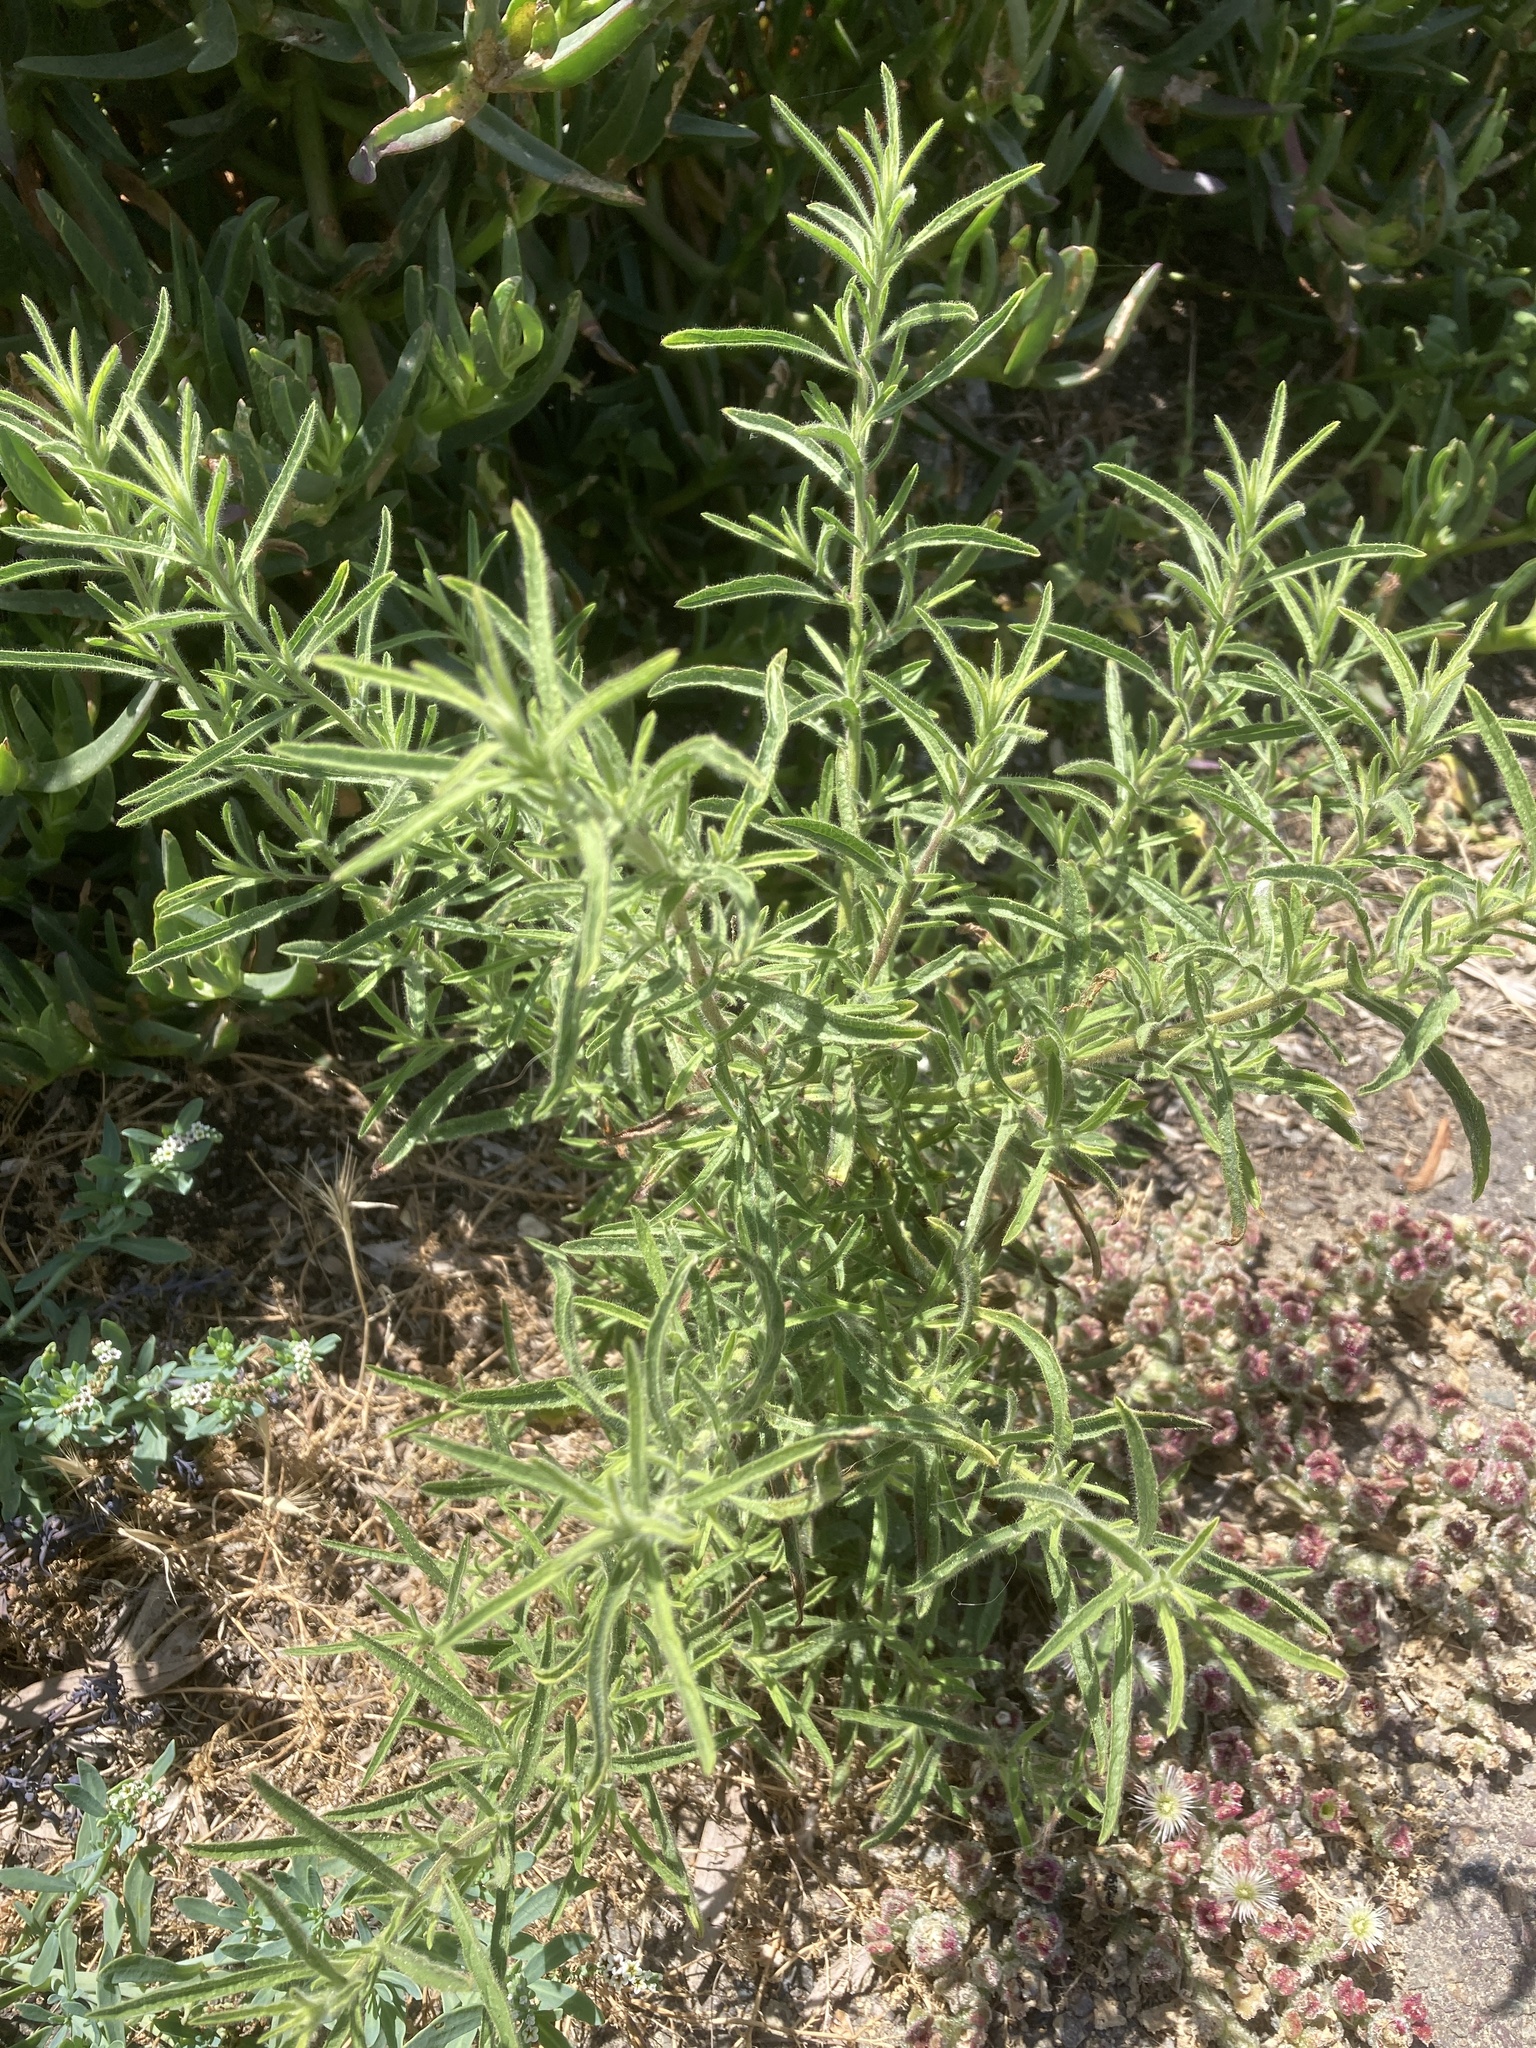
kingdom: Plantae
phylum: Tracheophyta
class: Magnoliopsida
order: Asterales
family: Asteraceae
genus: Dittrichia
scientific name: Dittrichia graveolens
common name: Stinking fleabane
